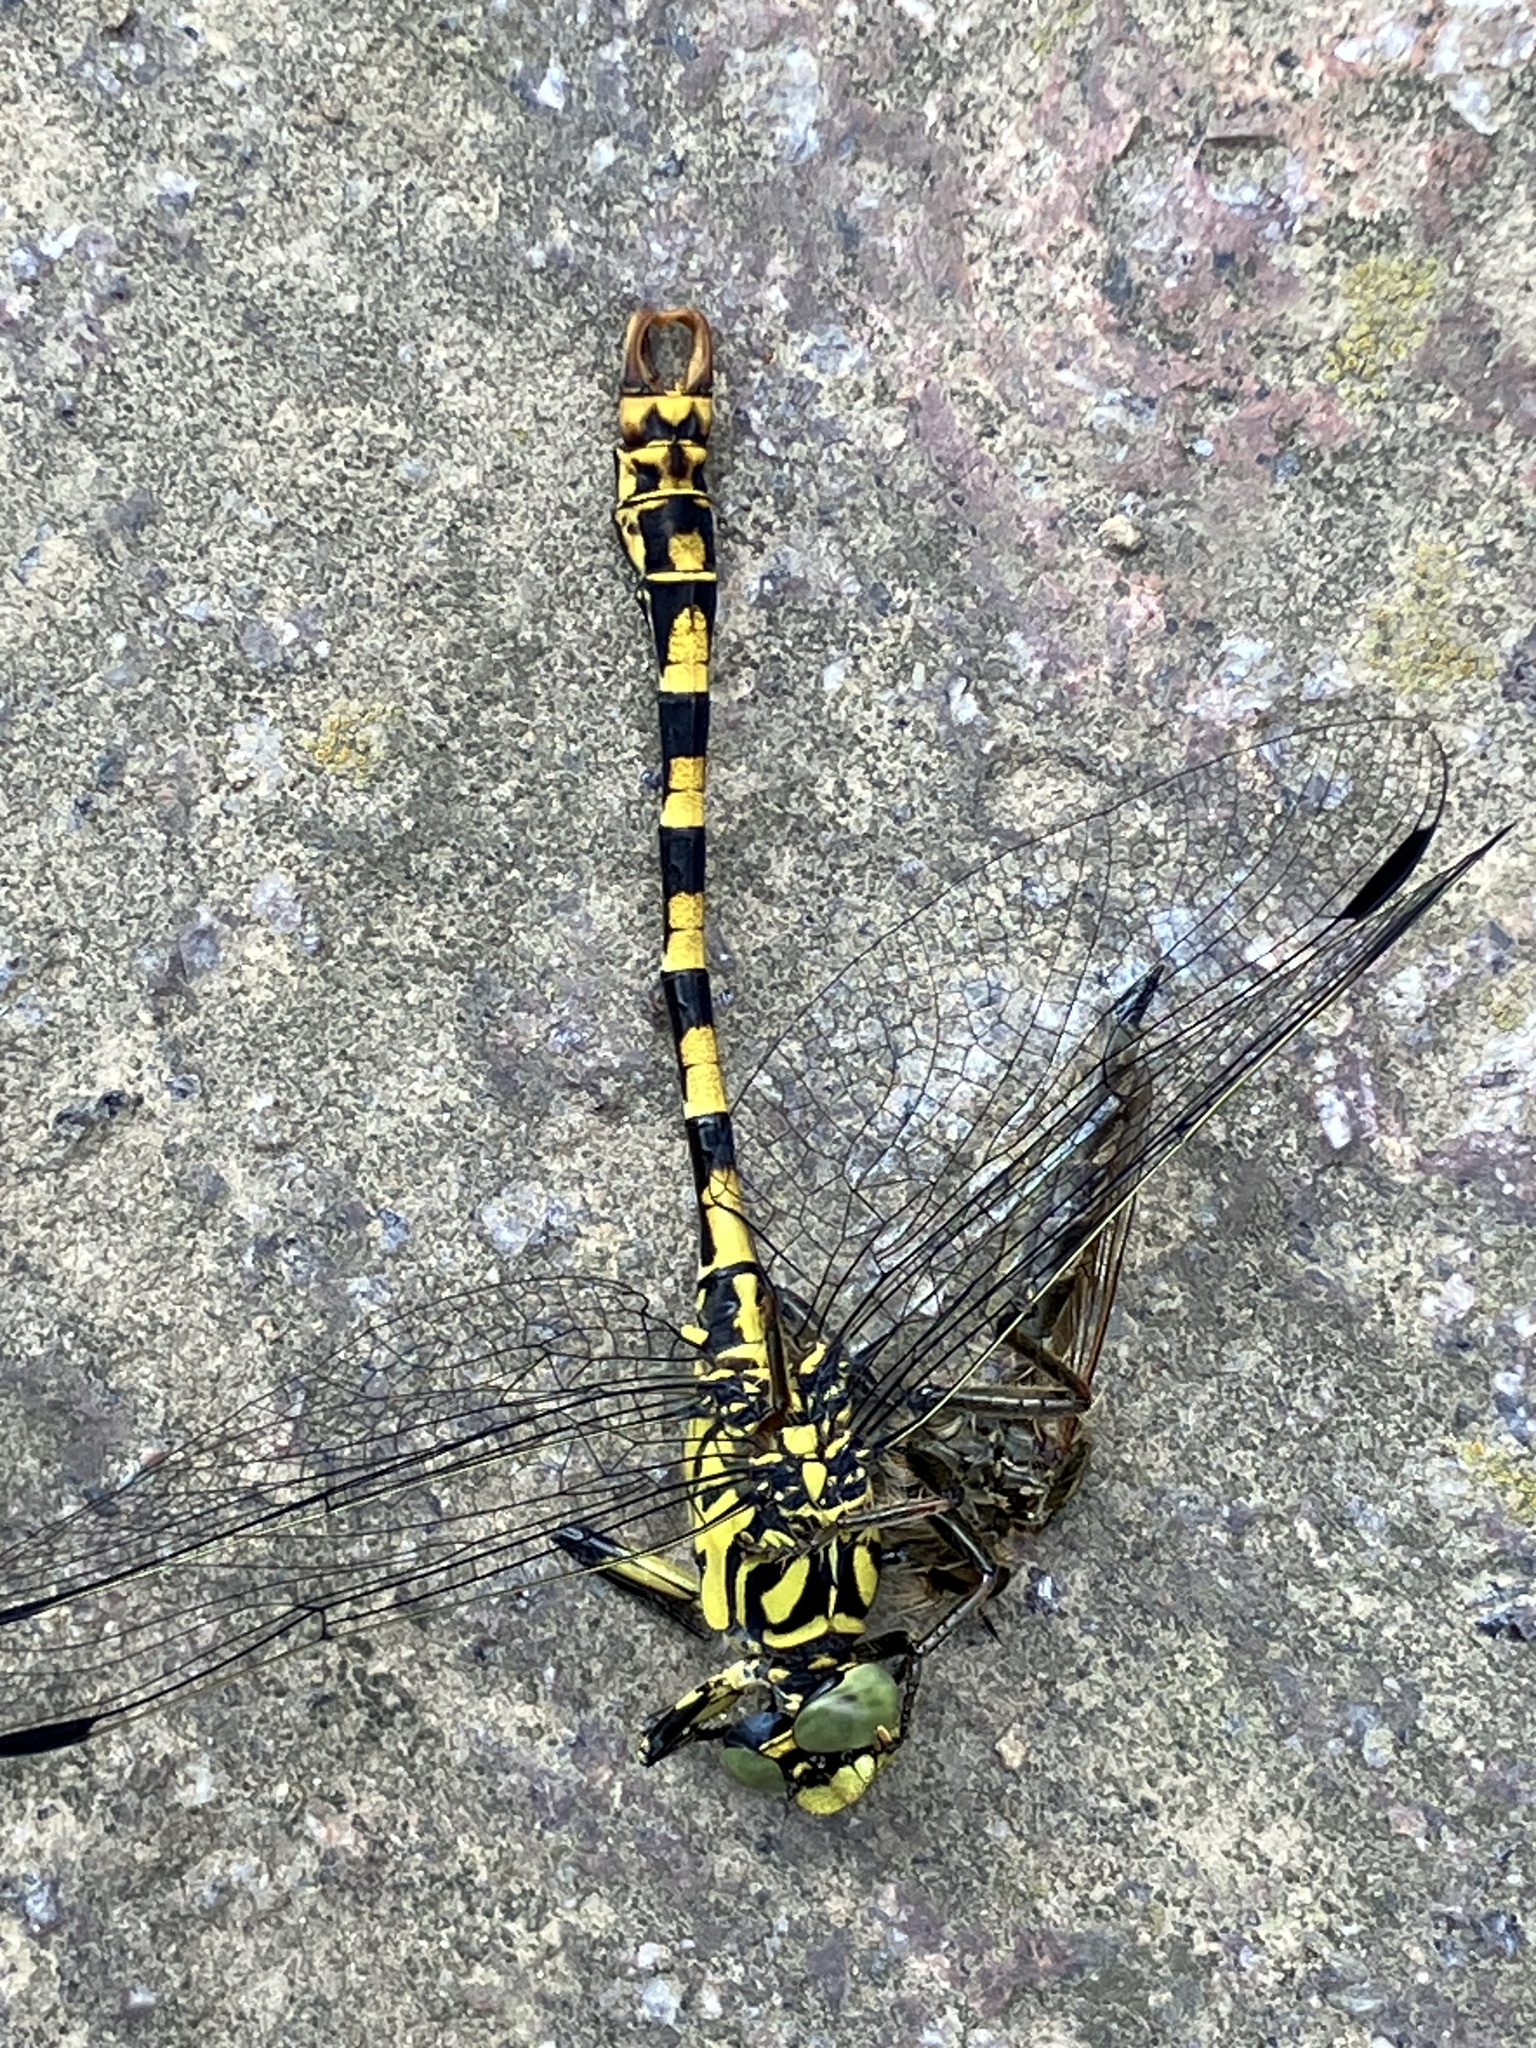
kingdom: Animalia
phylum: Arthropoda
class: Insecta
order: Odonata
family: Gomphidae
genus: Onychogomphus
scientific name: Onychogomphus forcipatus
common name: Small pincertail
